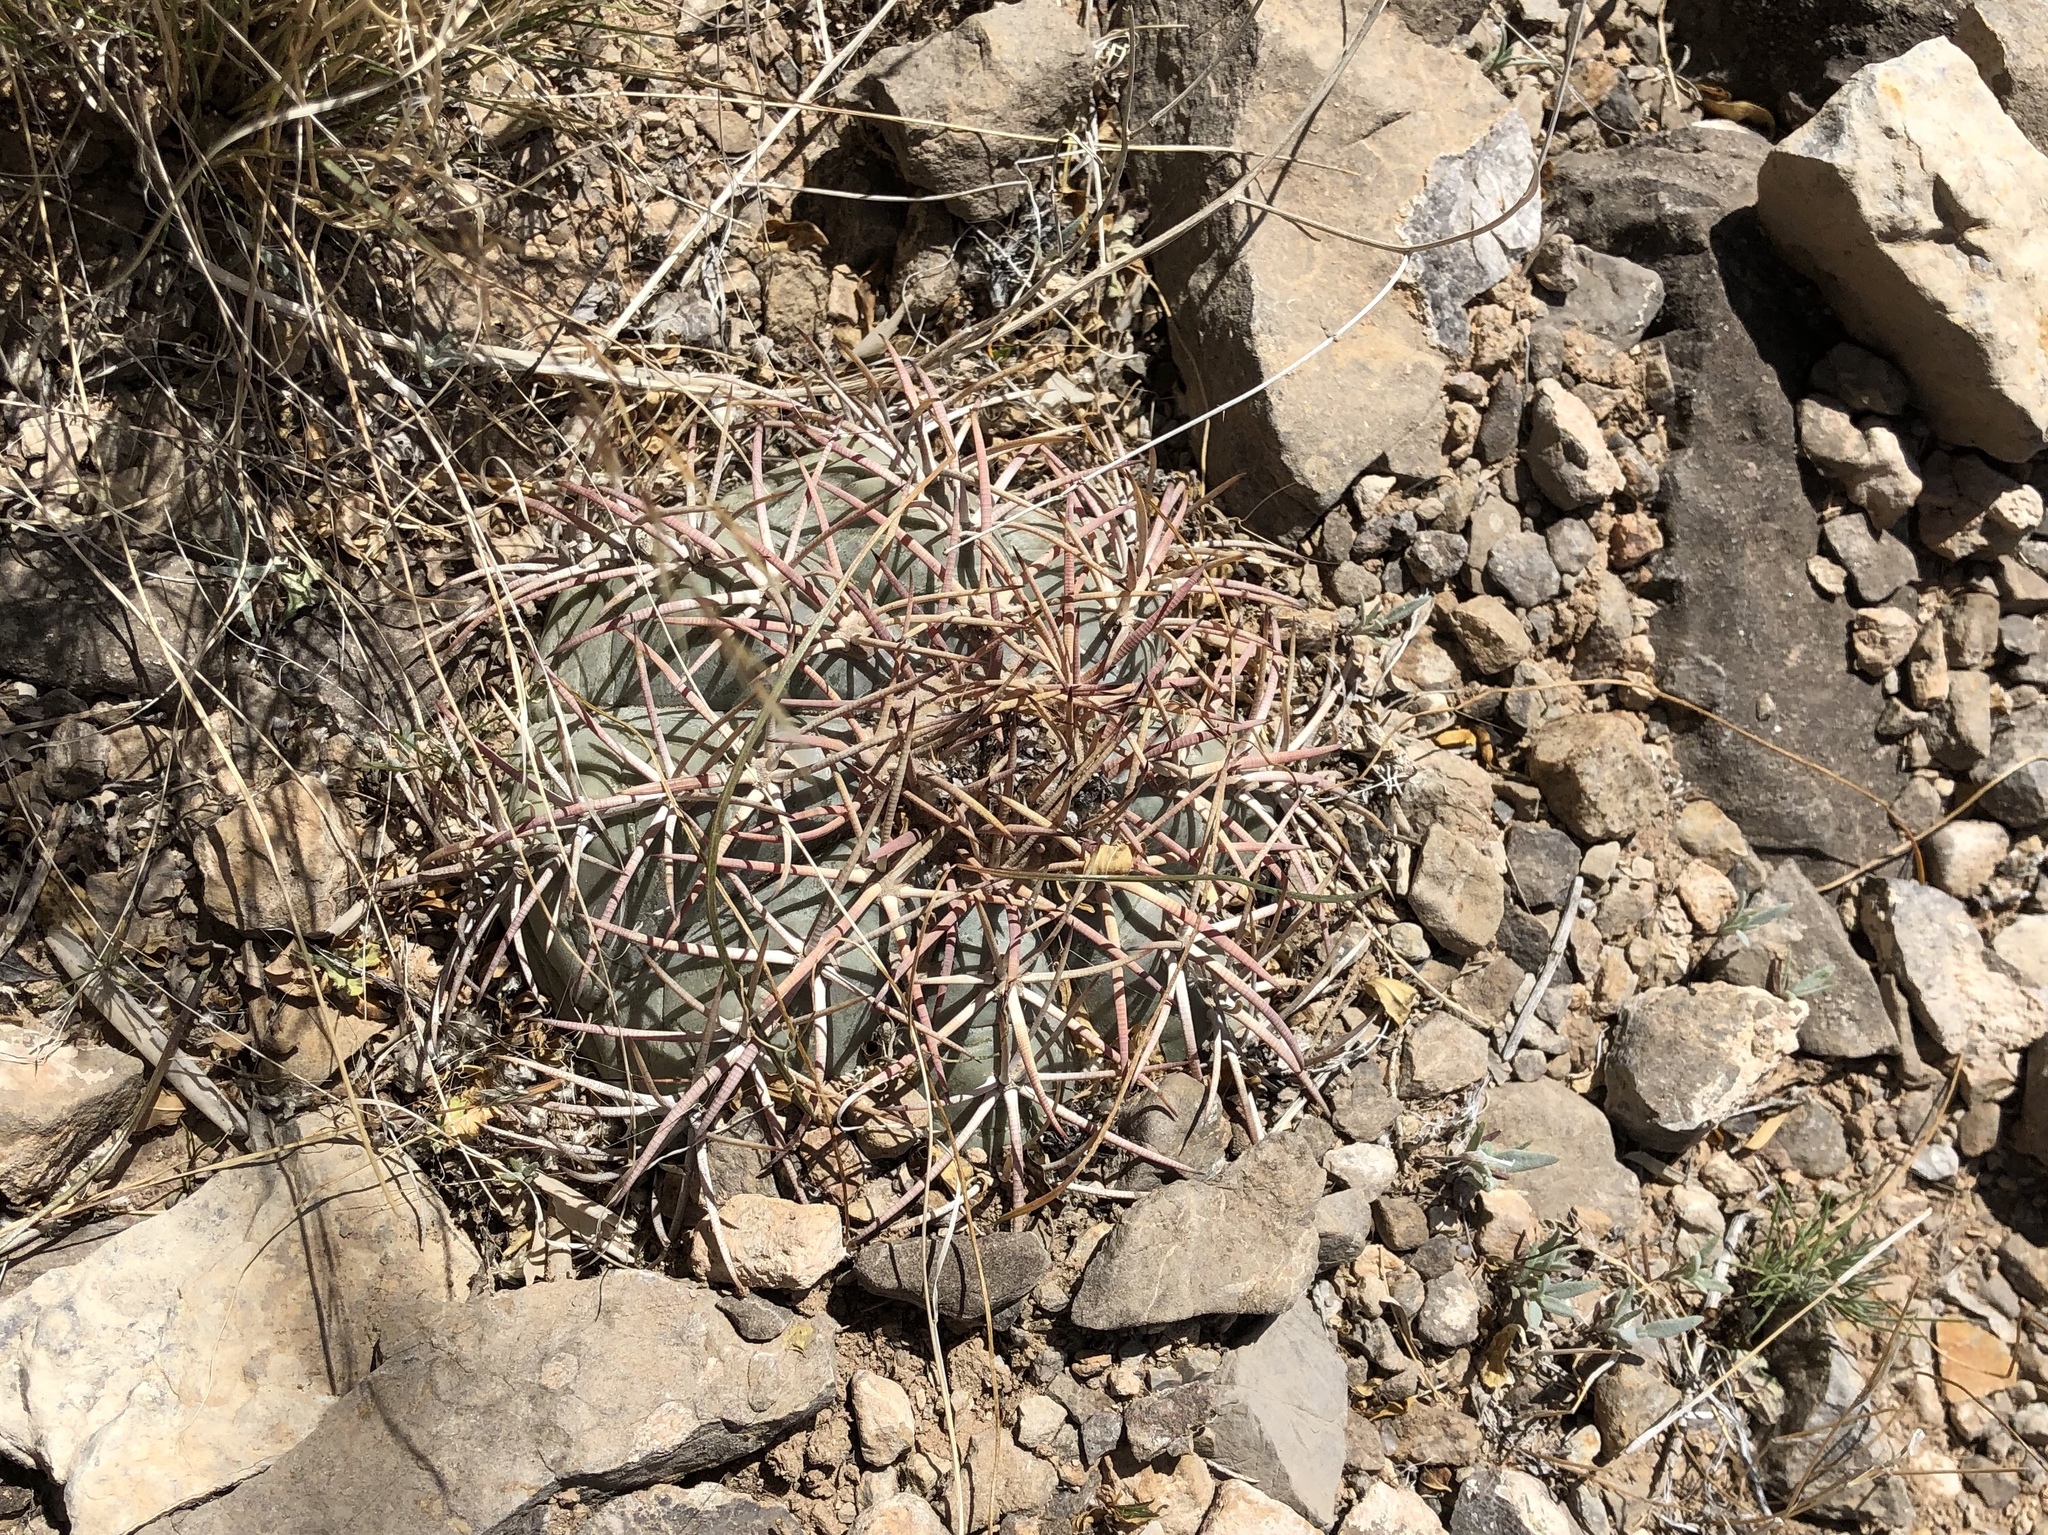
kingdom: Plantae
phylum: Tracheophyta
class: Magnoliopsida
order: Caryophyllales
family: Cactaceae
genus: Echinocactus
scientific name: Echinocactus horizonthalonius
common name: Devilshead
